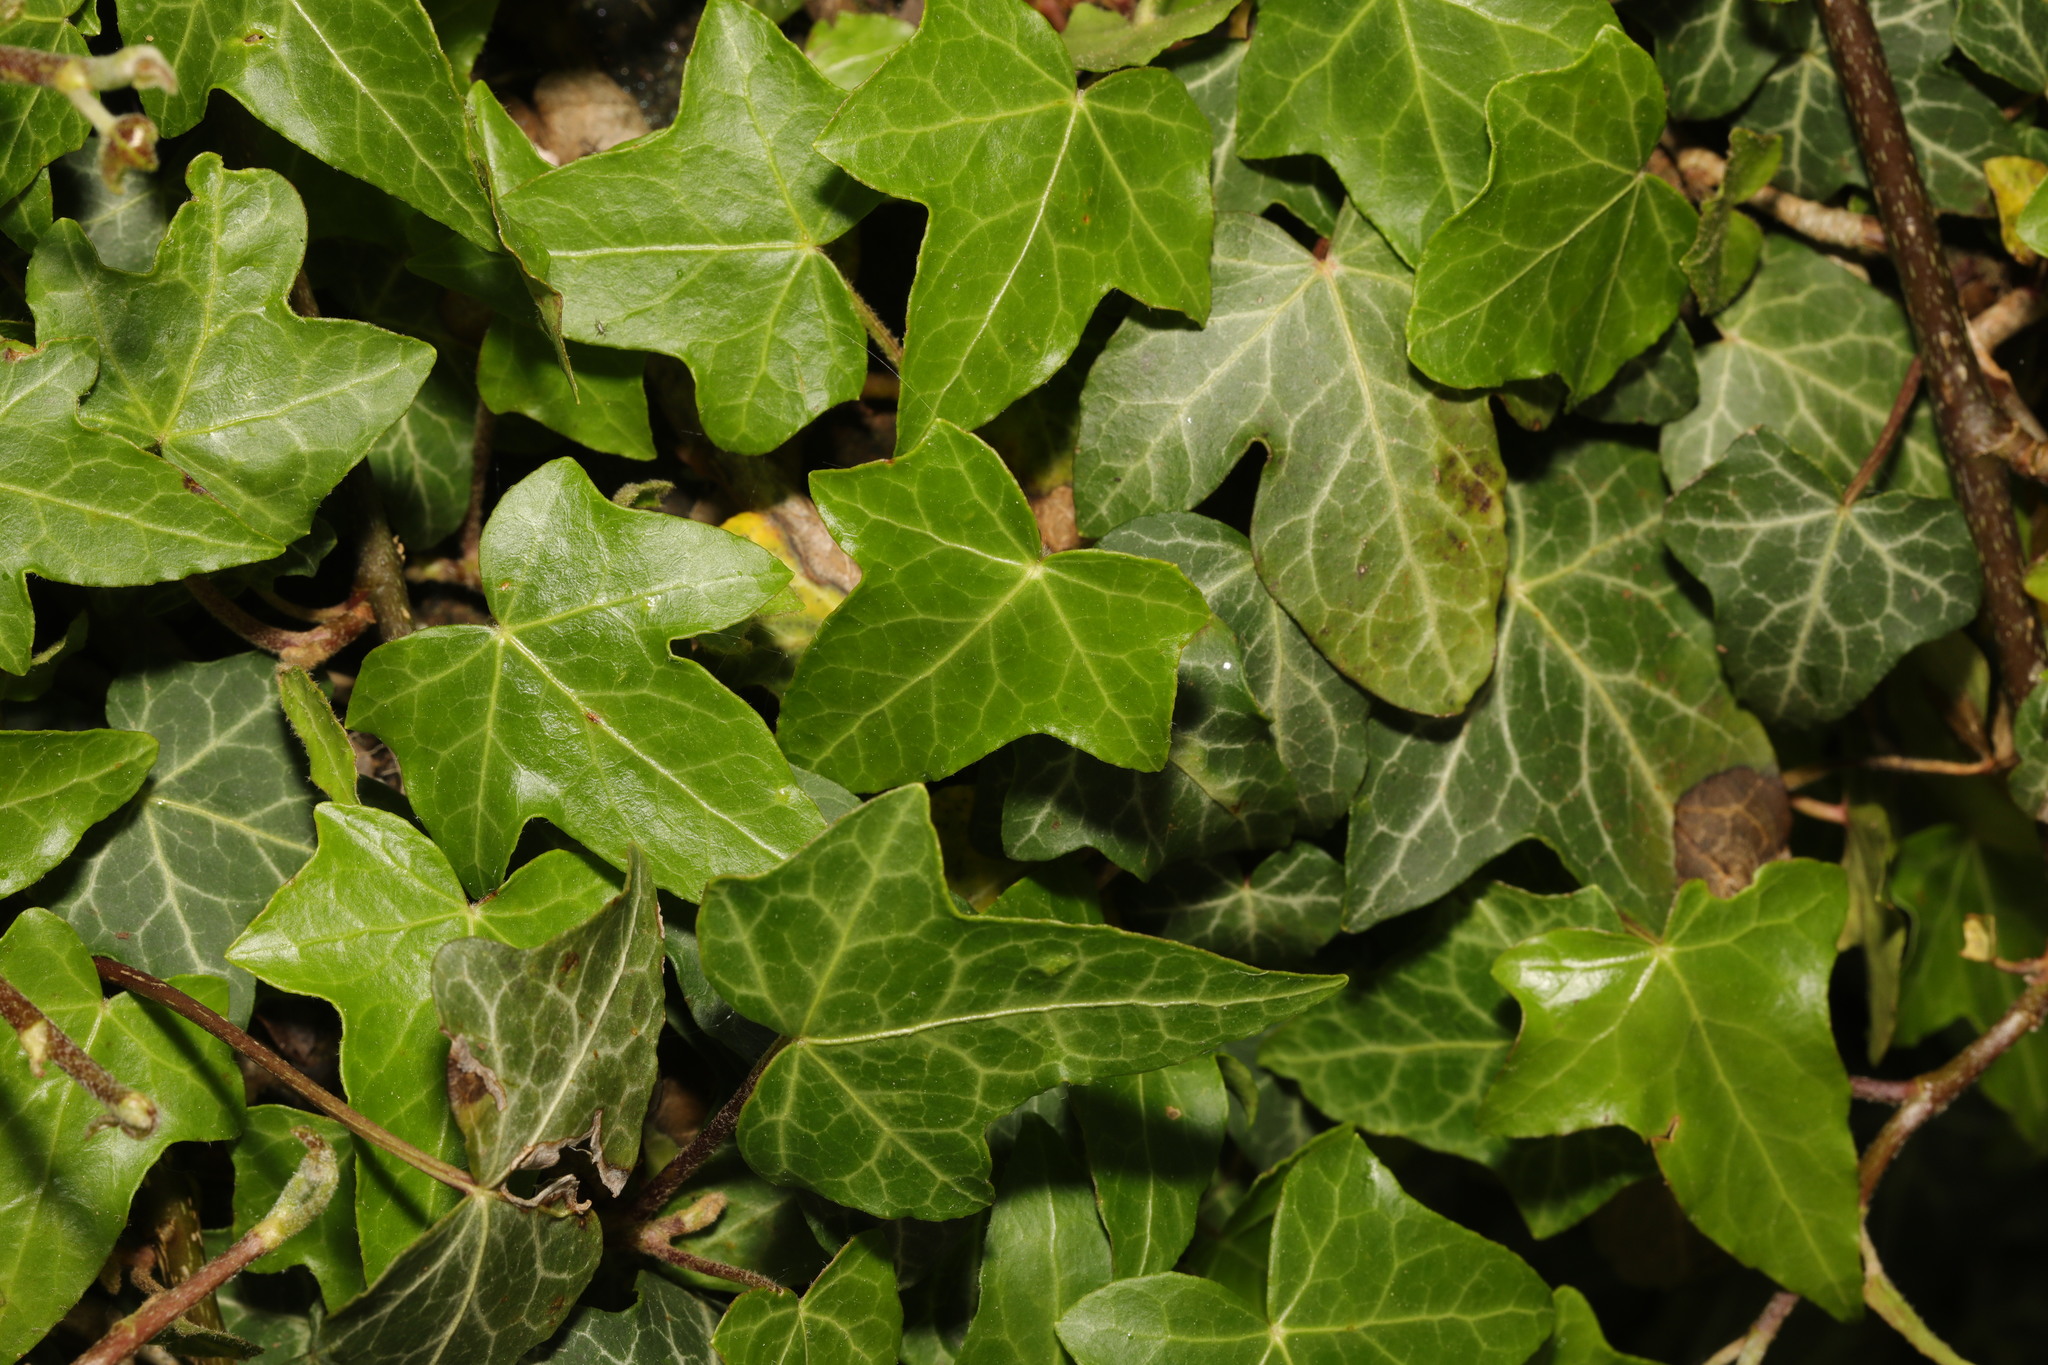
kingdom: Plantae
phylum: Tracheophyta
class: Magnoliopsida
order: Apiales
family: Araliaceae
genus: Hedera
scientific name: Hedera helix
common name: Ivy
